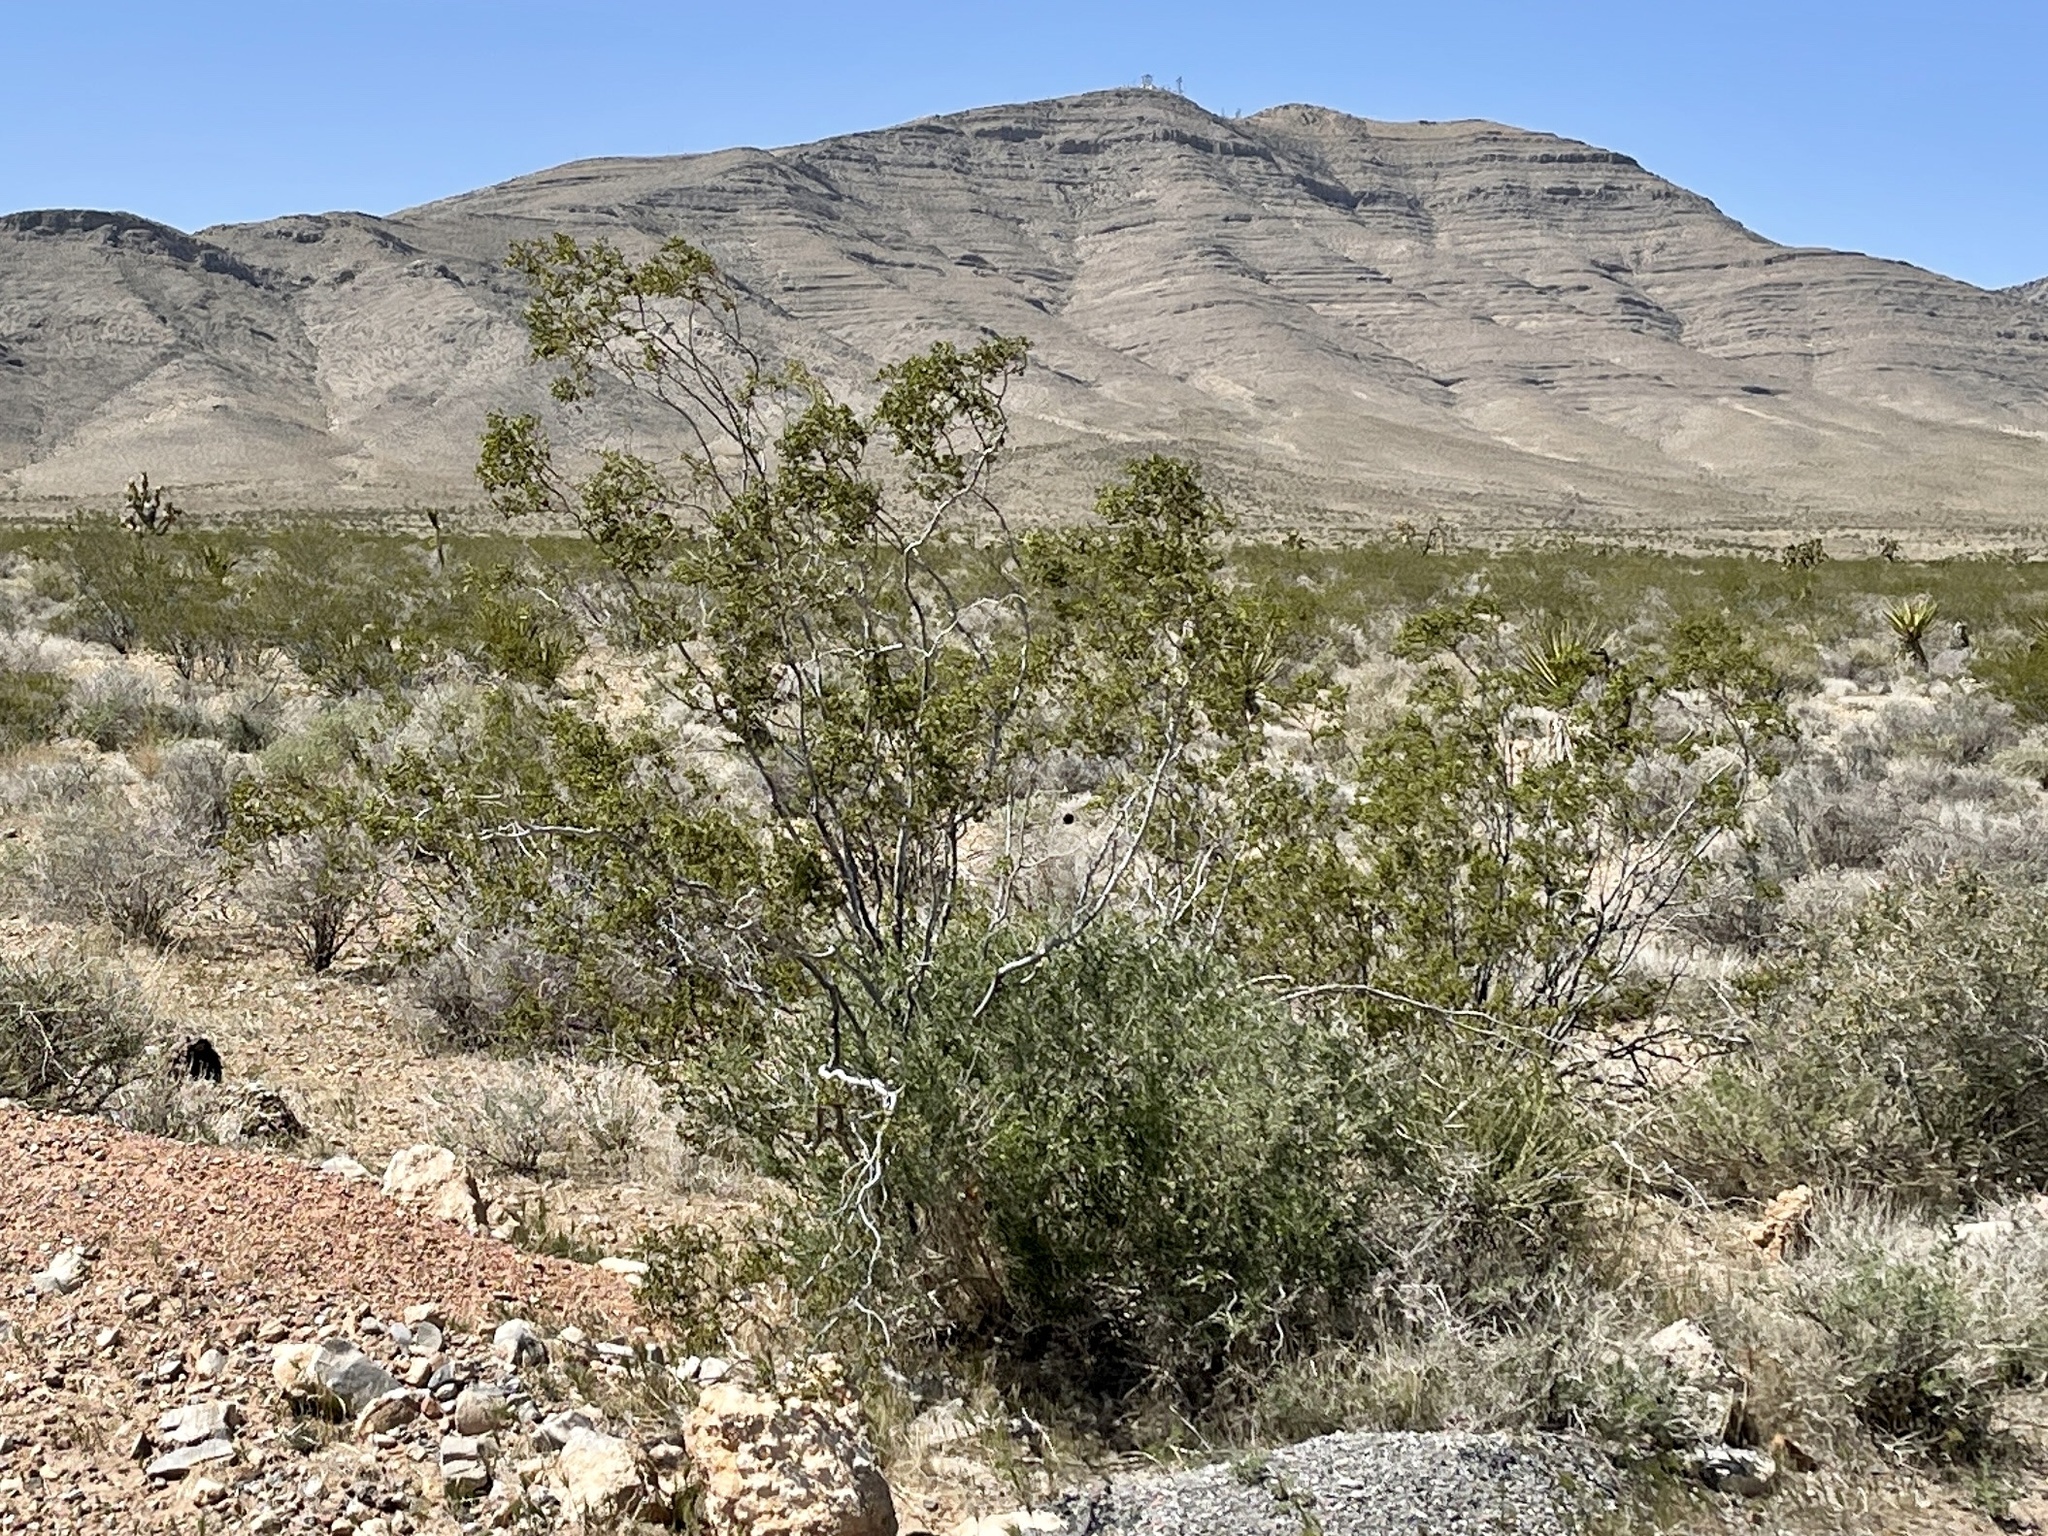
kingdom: Plantae
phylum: Tracheophyta
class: Magnoliopsida
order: Zygophyllales
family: Zygophyllaceae
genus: Larrea
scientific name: Larrea tridentata
